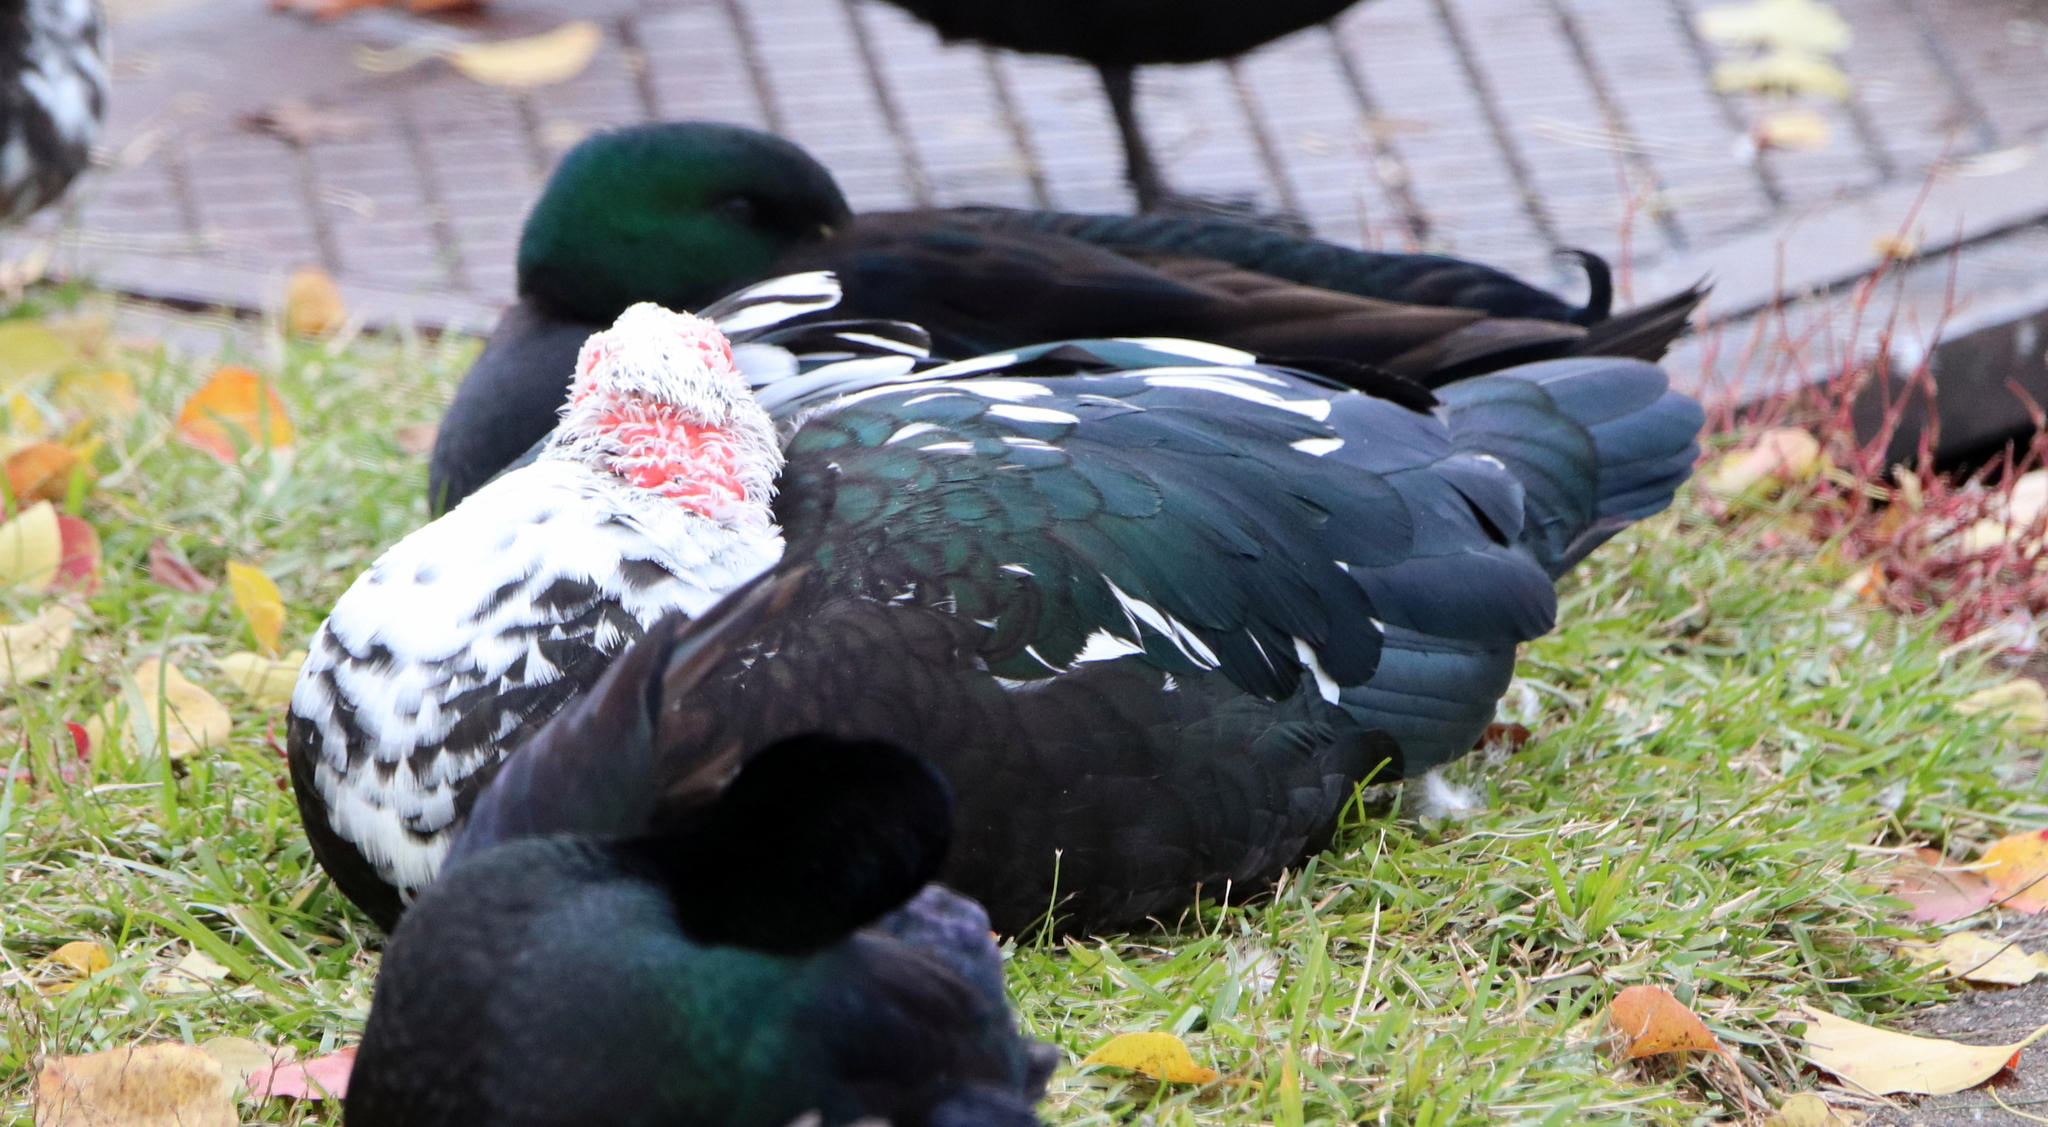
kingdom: Animalia
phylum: Chordata
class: Aves
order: Anseriformes
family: Anatidae
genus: Cairina
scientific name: Cairina moschata
